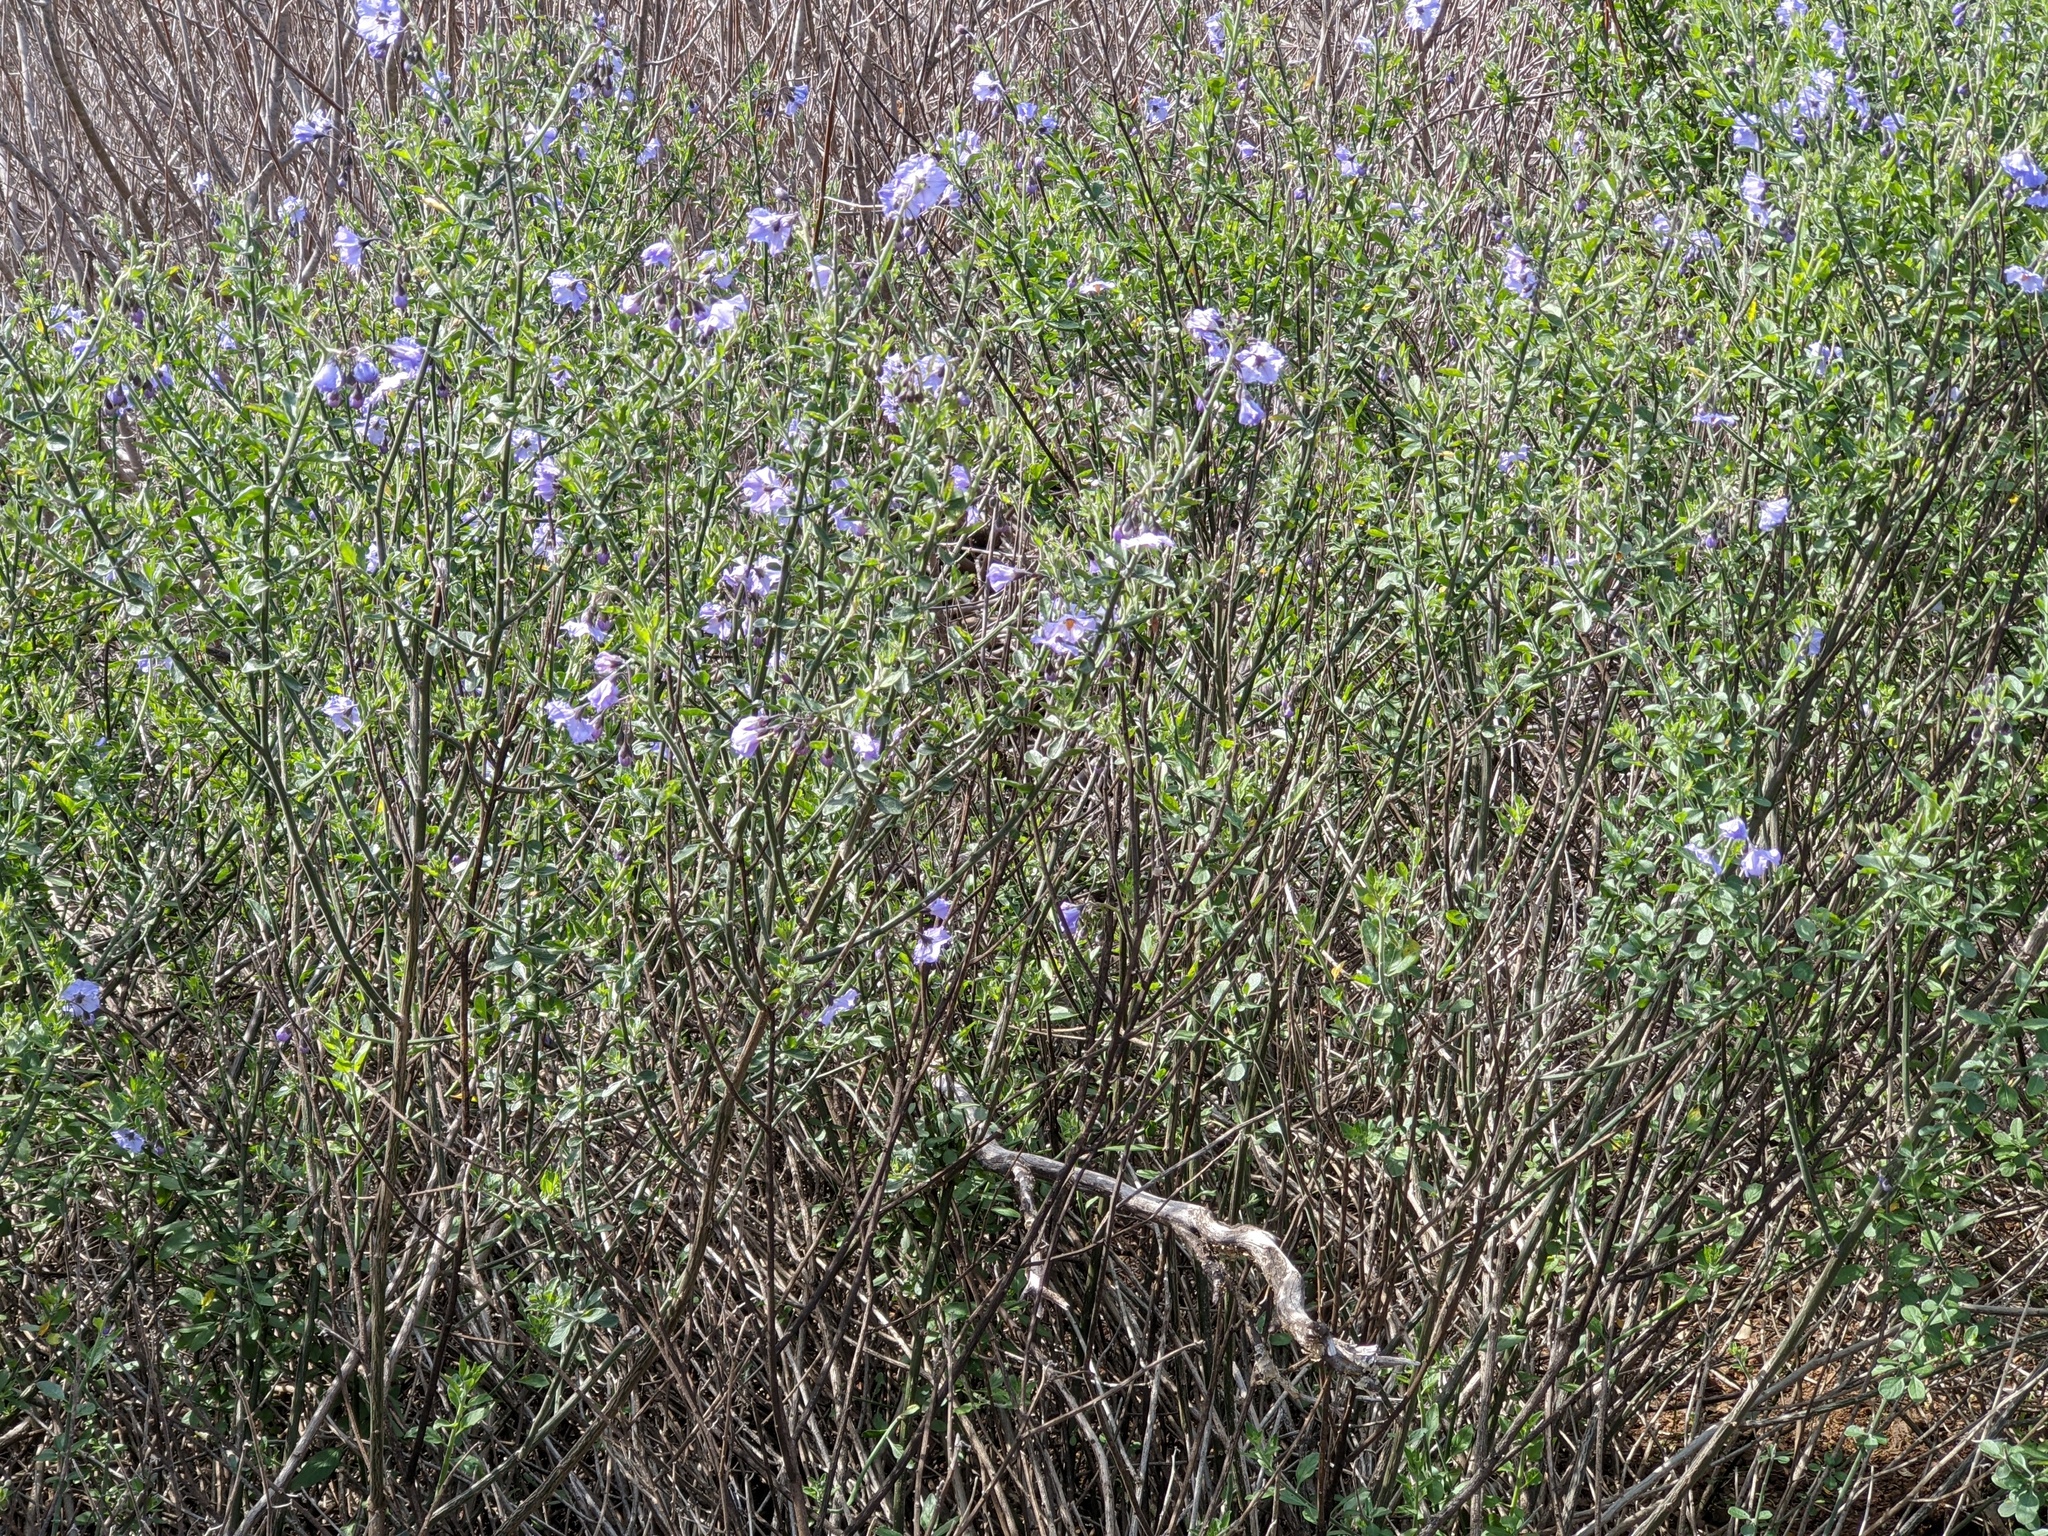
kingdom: Plantae
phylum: Tracheophyta
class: Magnoliopsida
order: Solanales
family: Solanaceae
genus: Solanum
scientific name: Solanum umbelliferum
